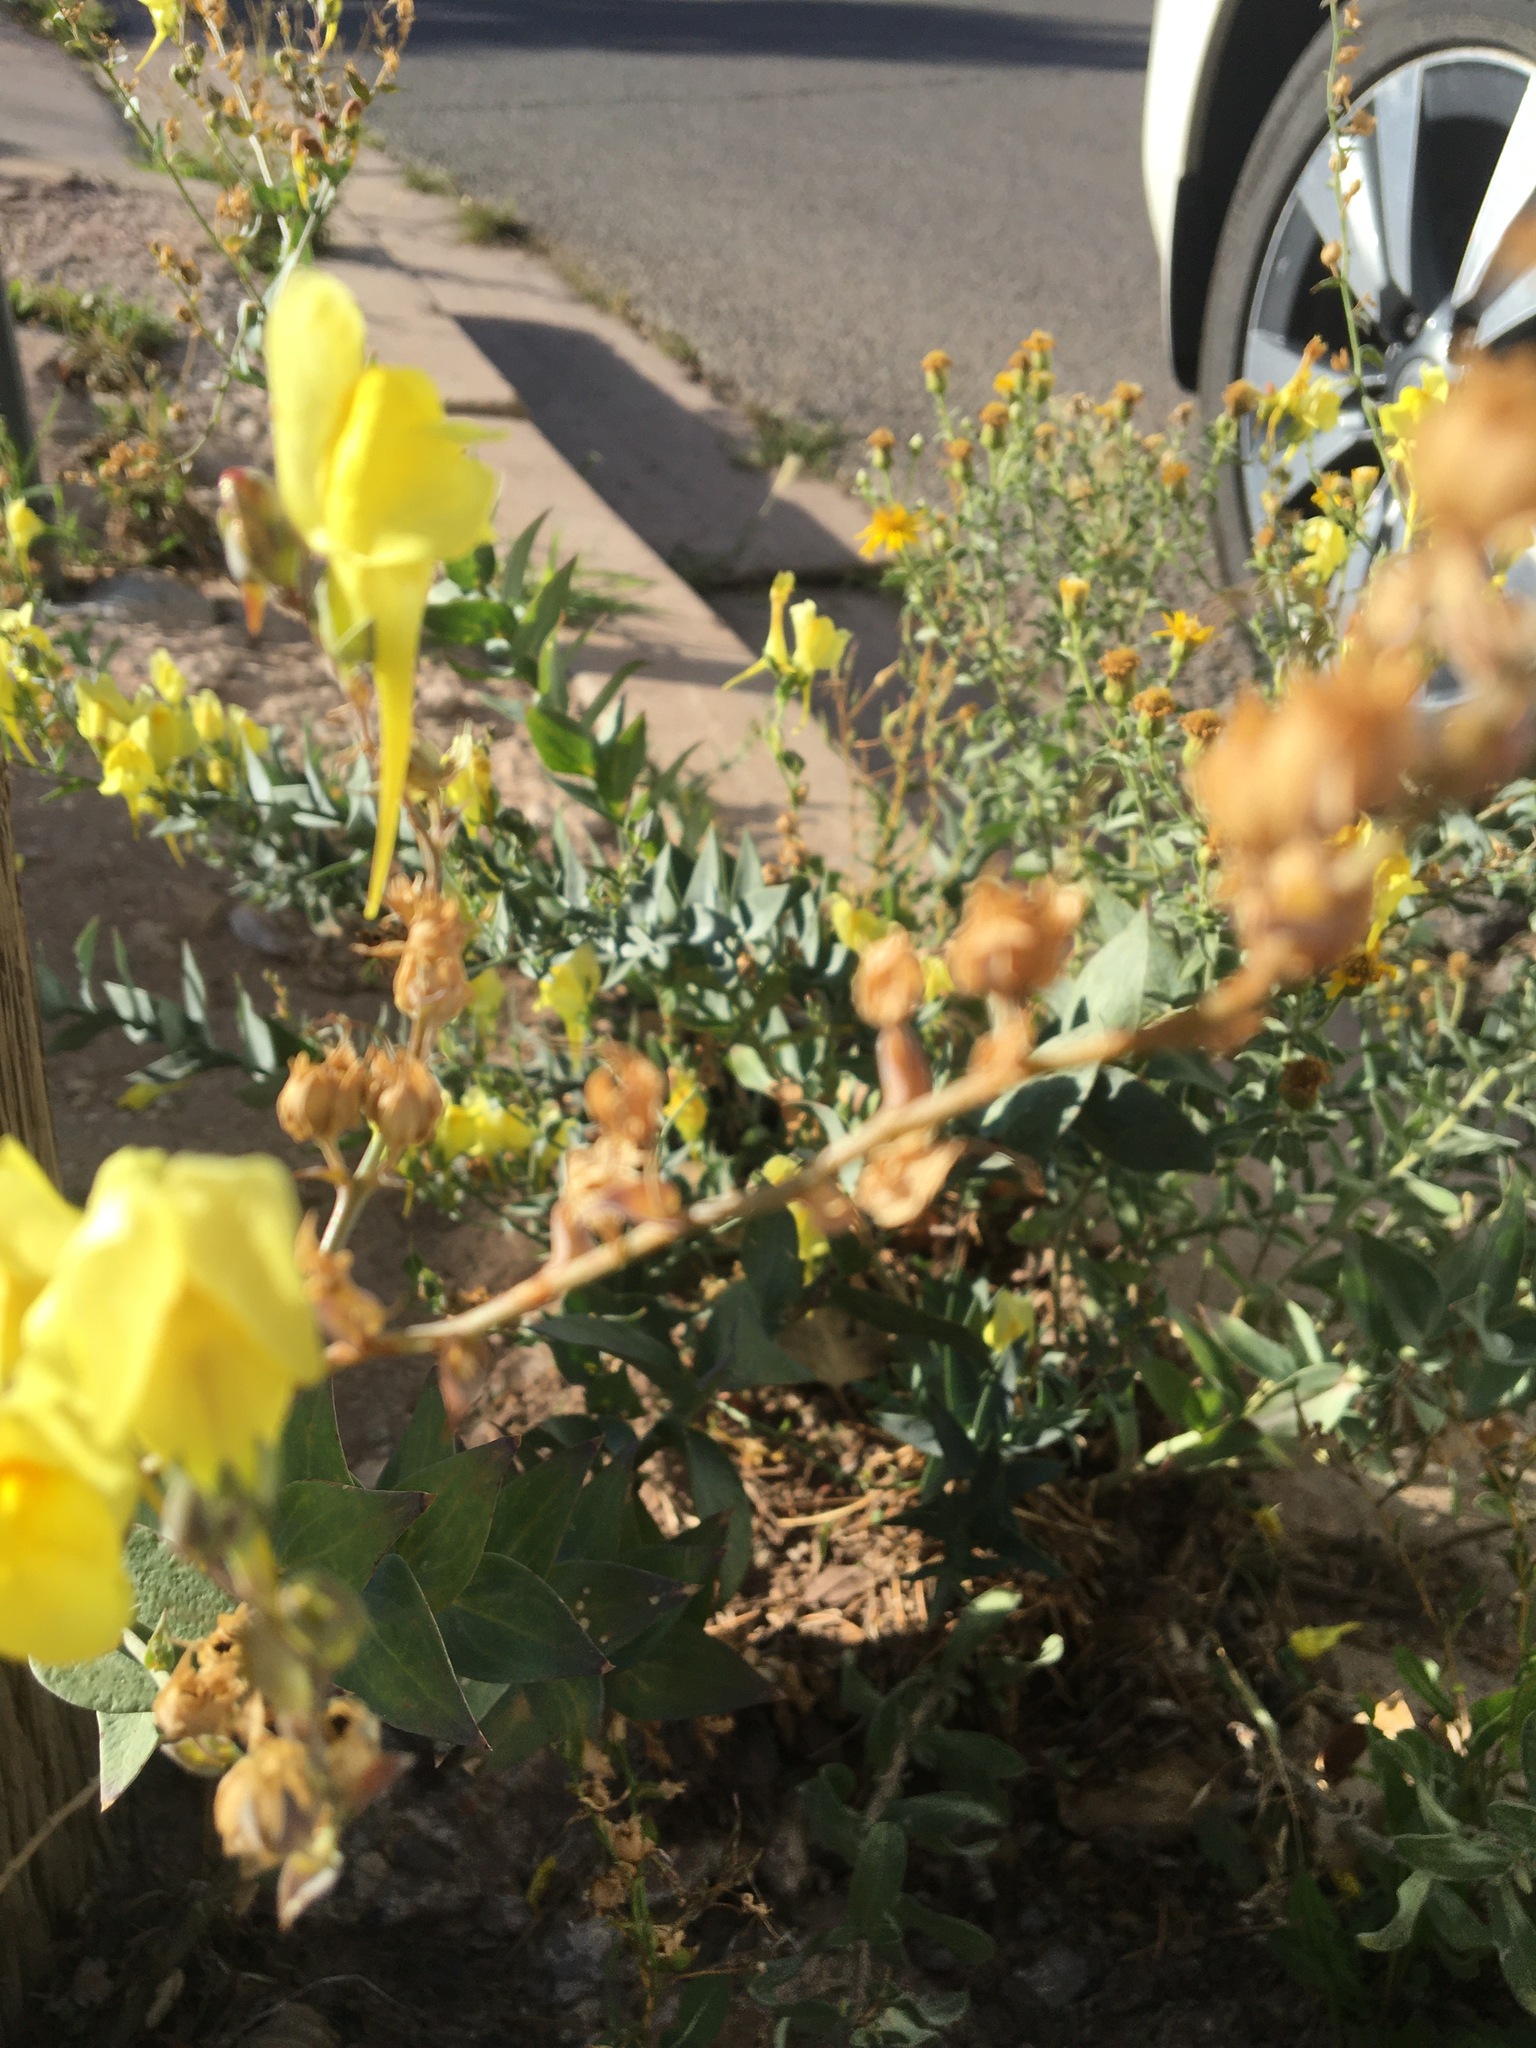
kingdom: Plantae
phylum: Tracheophyta
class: Magnoliopsida
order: Lamiales
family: Plantaginaceae
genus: Linaria
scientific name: Linaria dalmatica
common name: Dalmatian toadflax
